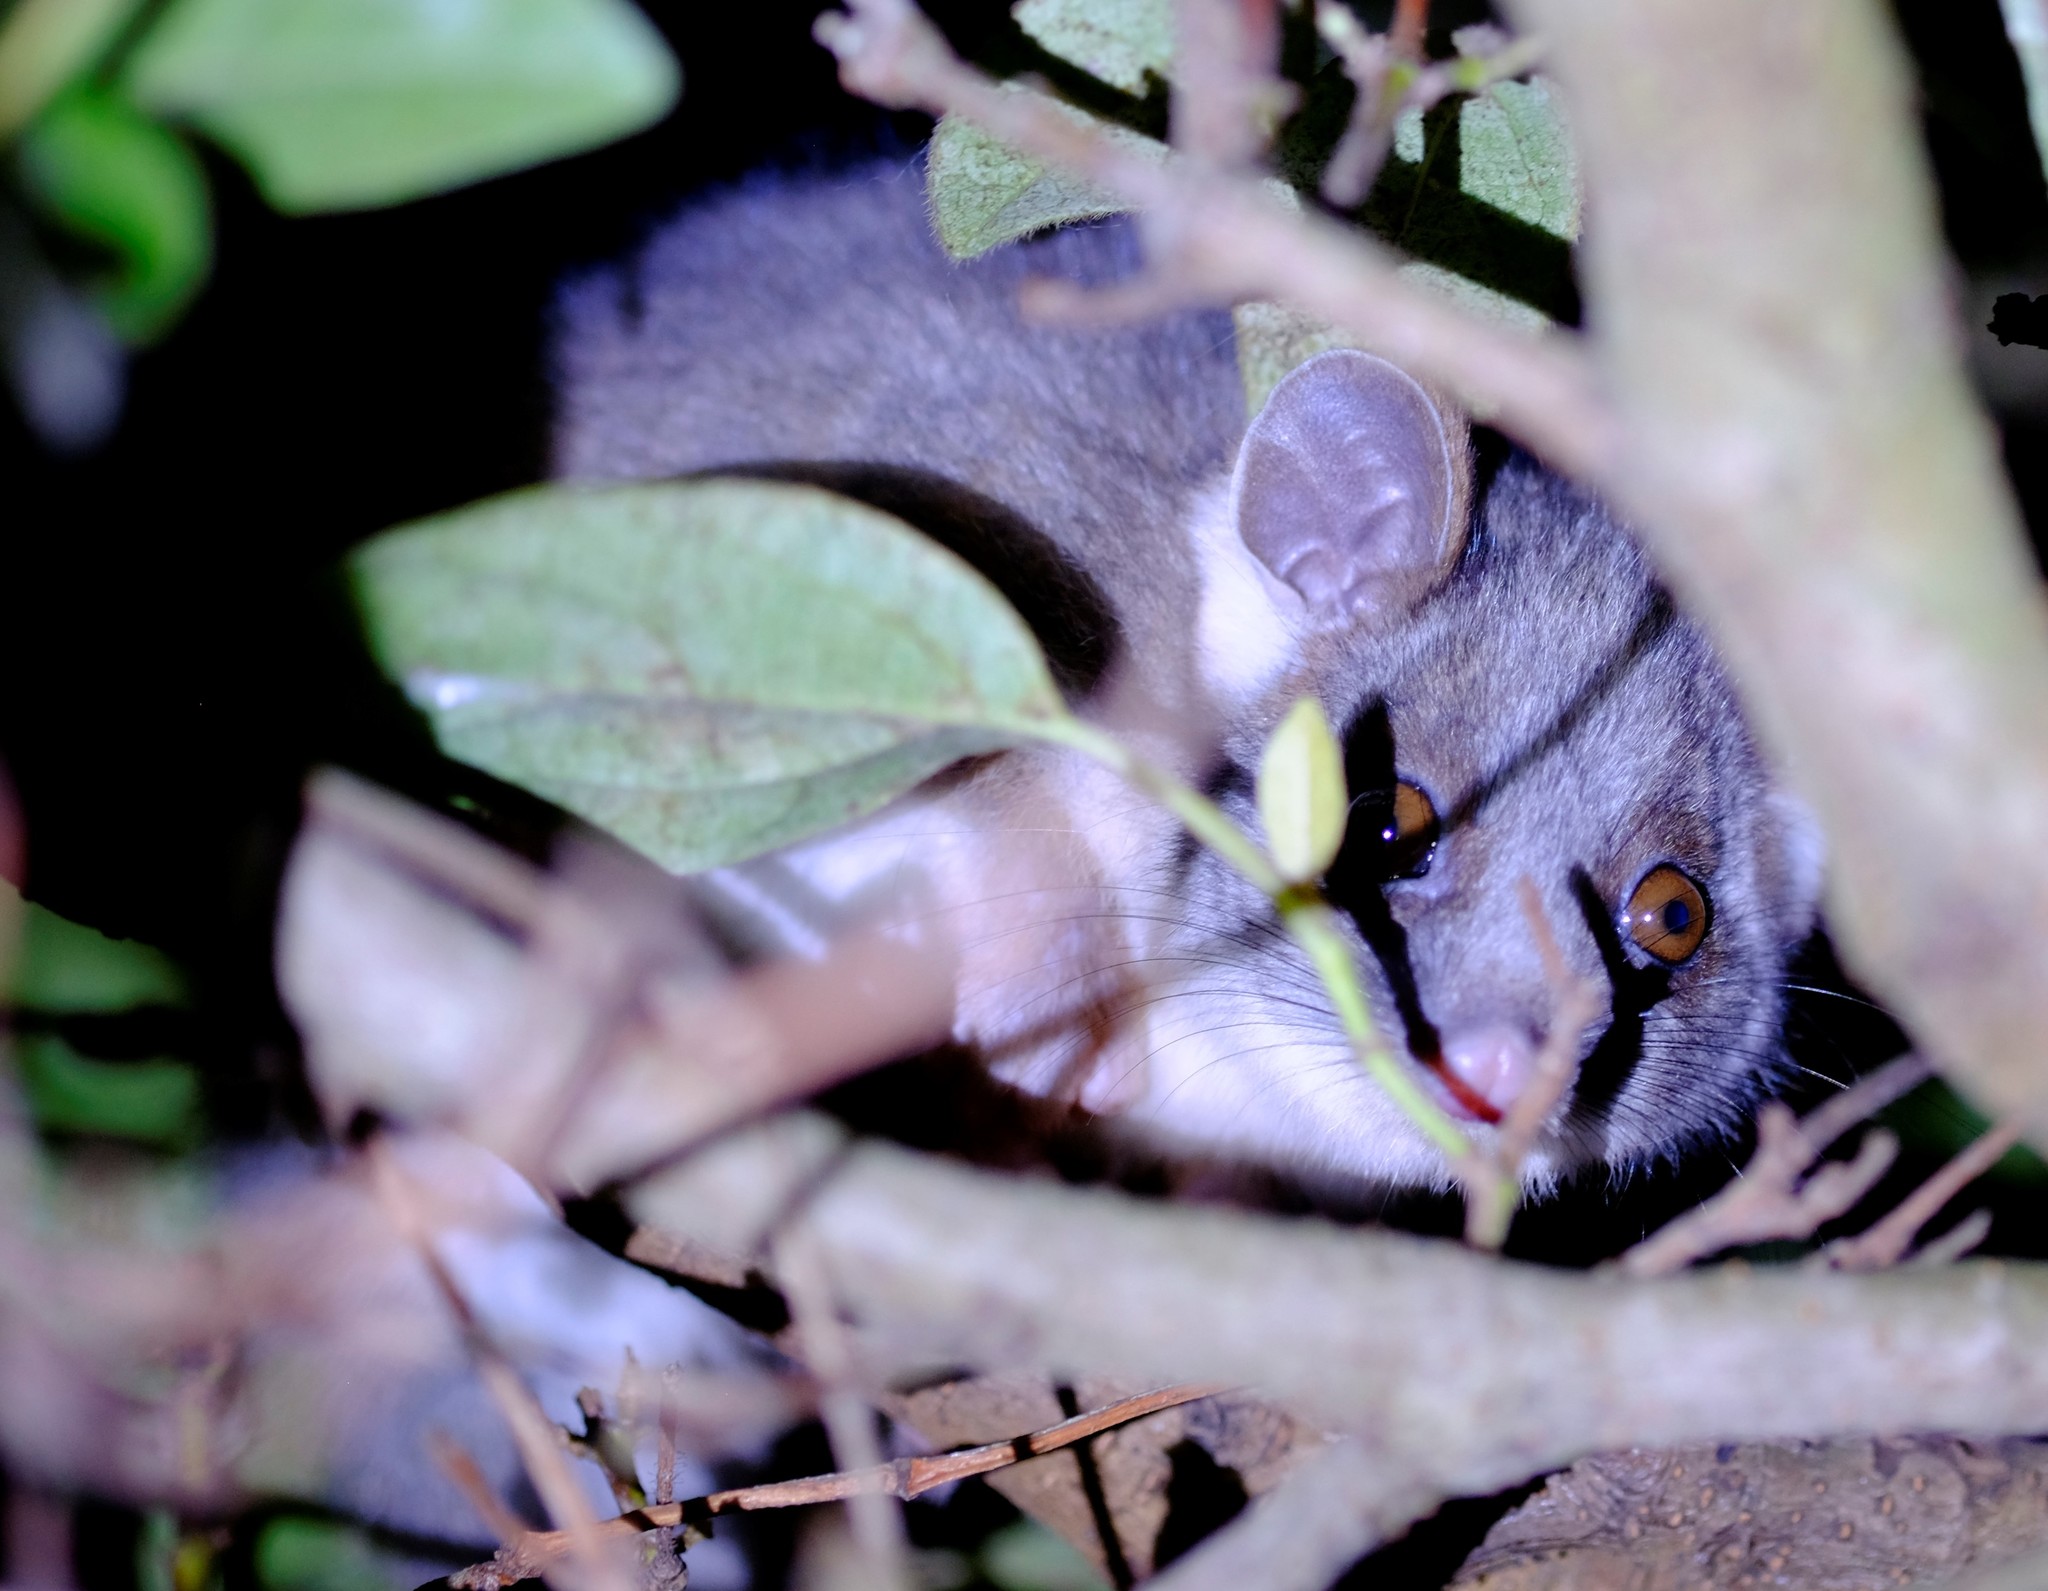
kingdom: Animalia
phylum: Chordata
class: Mammalia
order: Diprotodontia
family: Pseudocheiridae
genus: Pseudocheirus
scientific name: Pseudocheirus peregrinus
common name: Common ringtail possum
